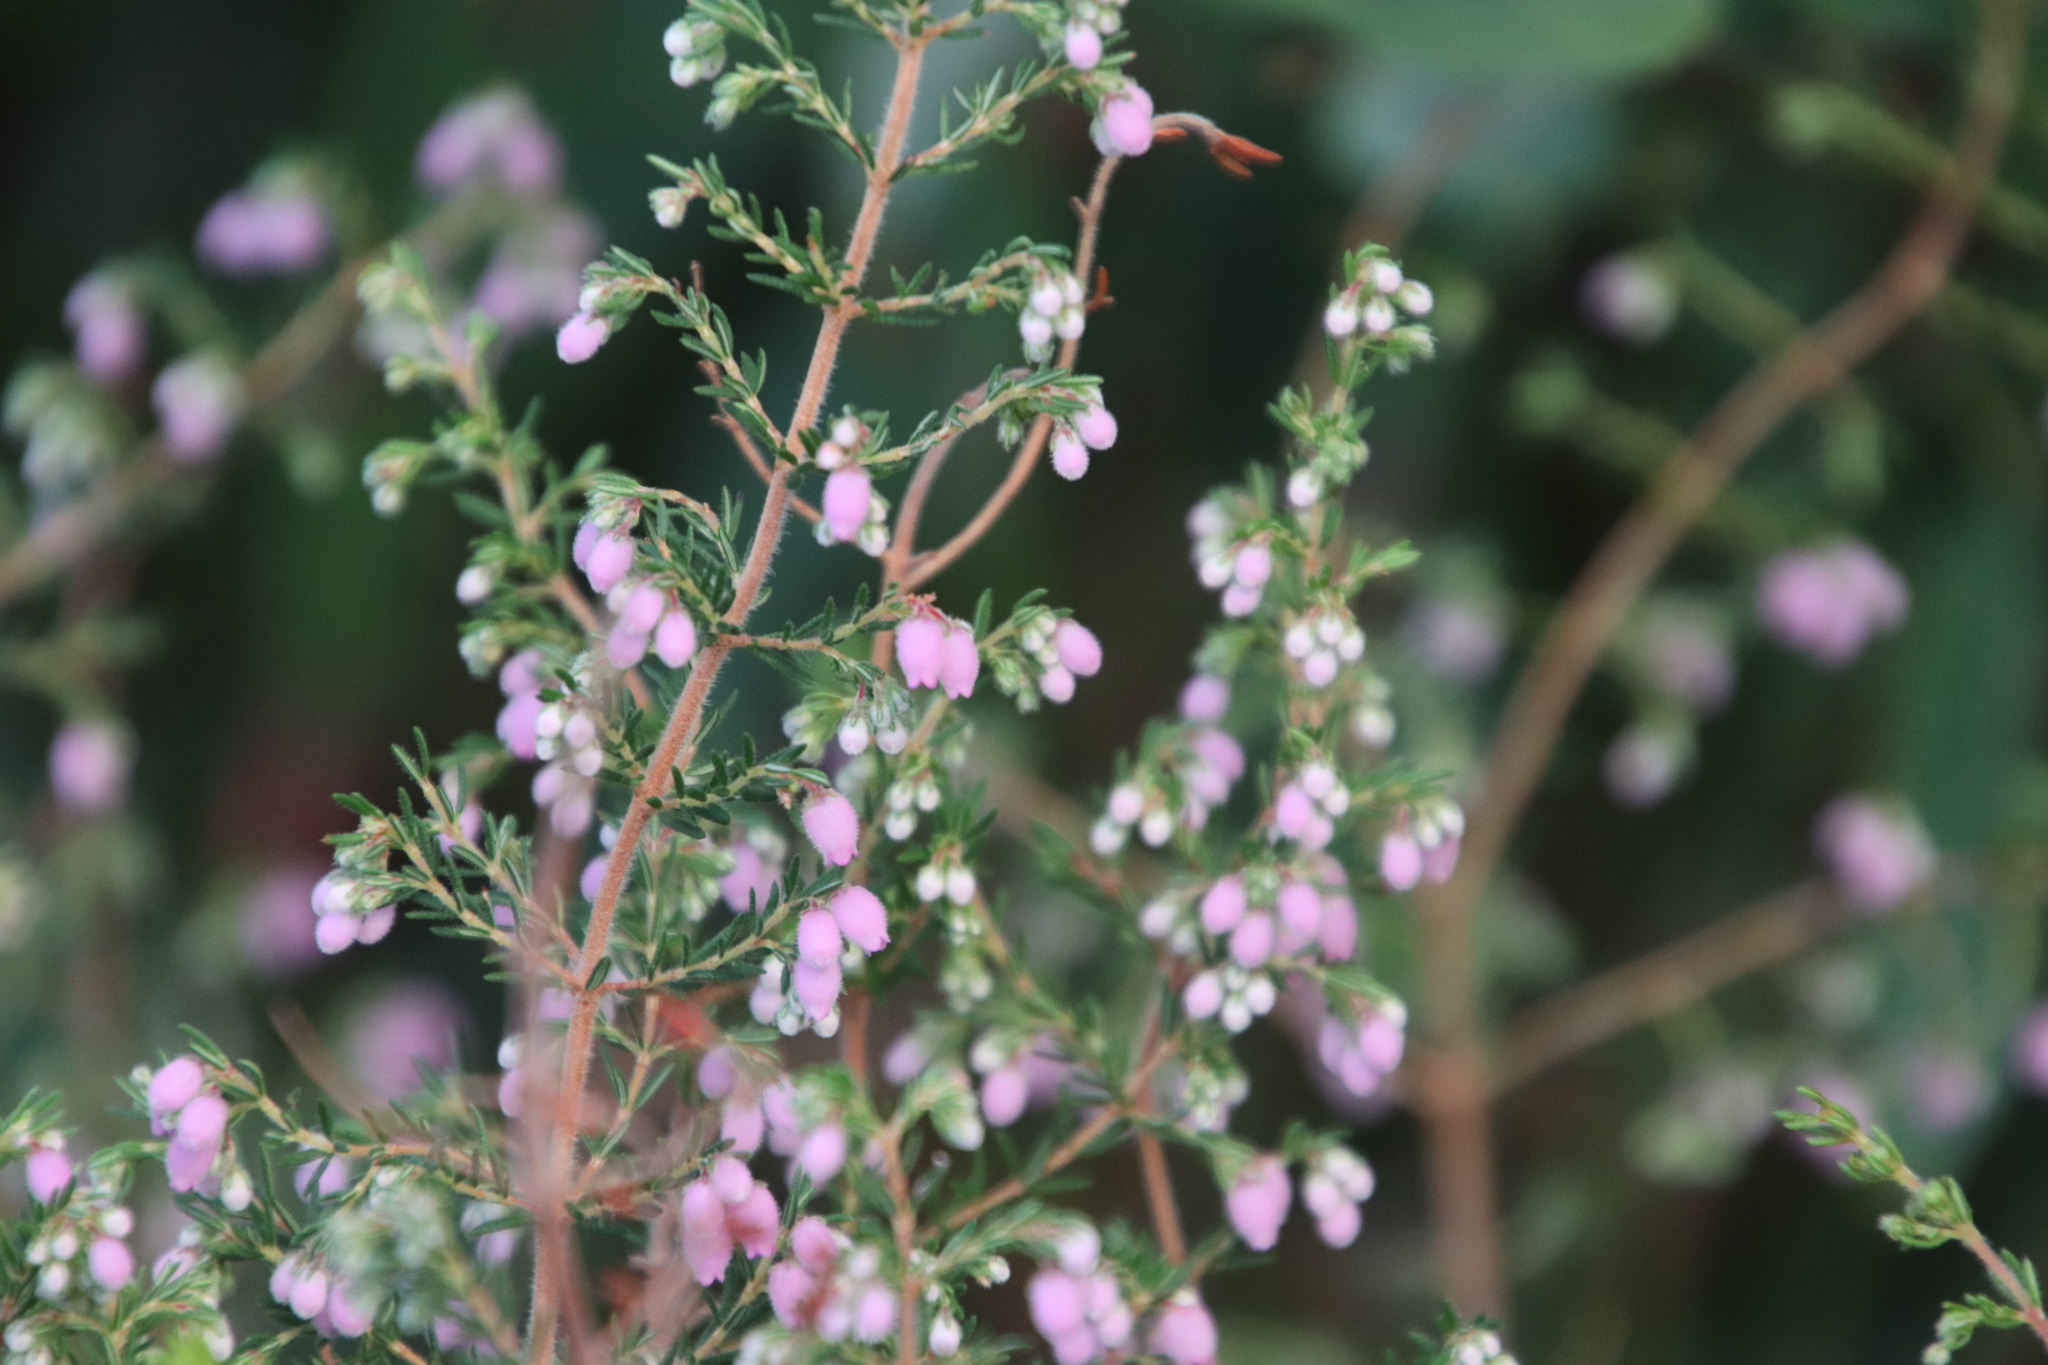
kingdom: Plantae
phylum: Tracheophyta
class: Magnoliopsida
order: Ericales
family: Ericaceae
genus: Erica
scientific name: Erica hirtiflora
